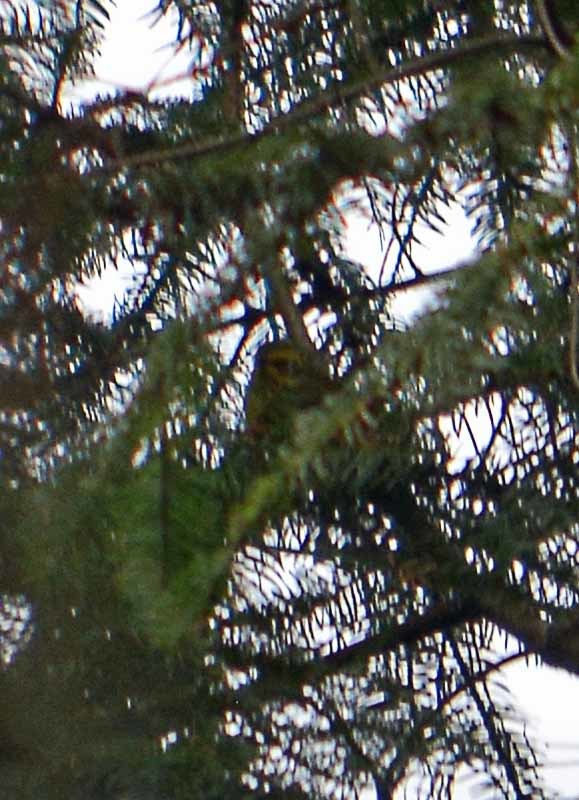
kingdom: Animalia
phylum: Chordata
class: Aves
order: Passeriformes
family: Parulidae
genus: Setophaga
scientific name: Setophaga townsendi
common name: Townsend's warbler
